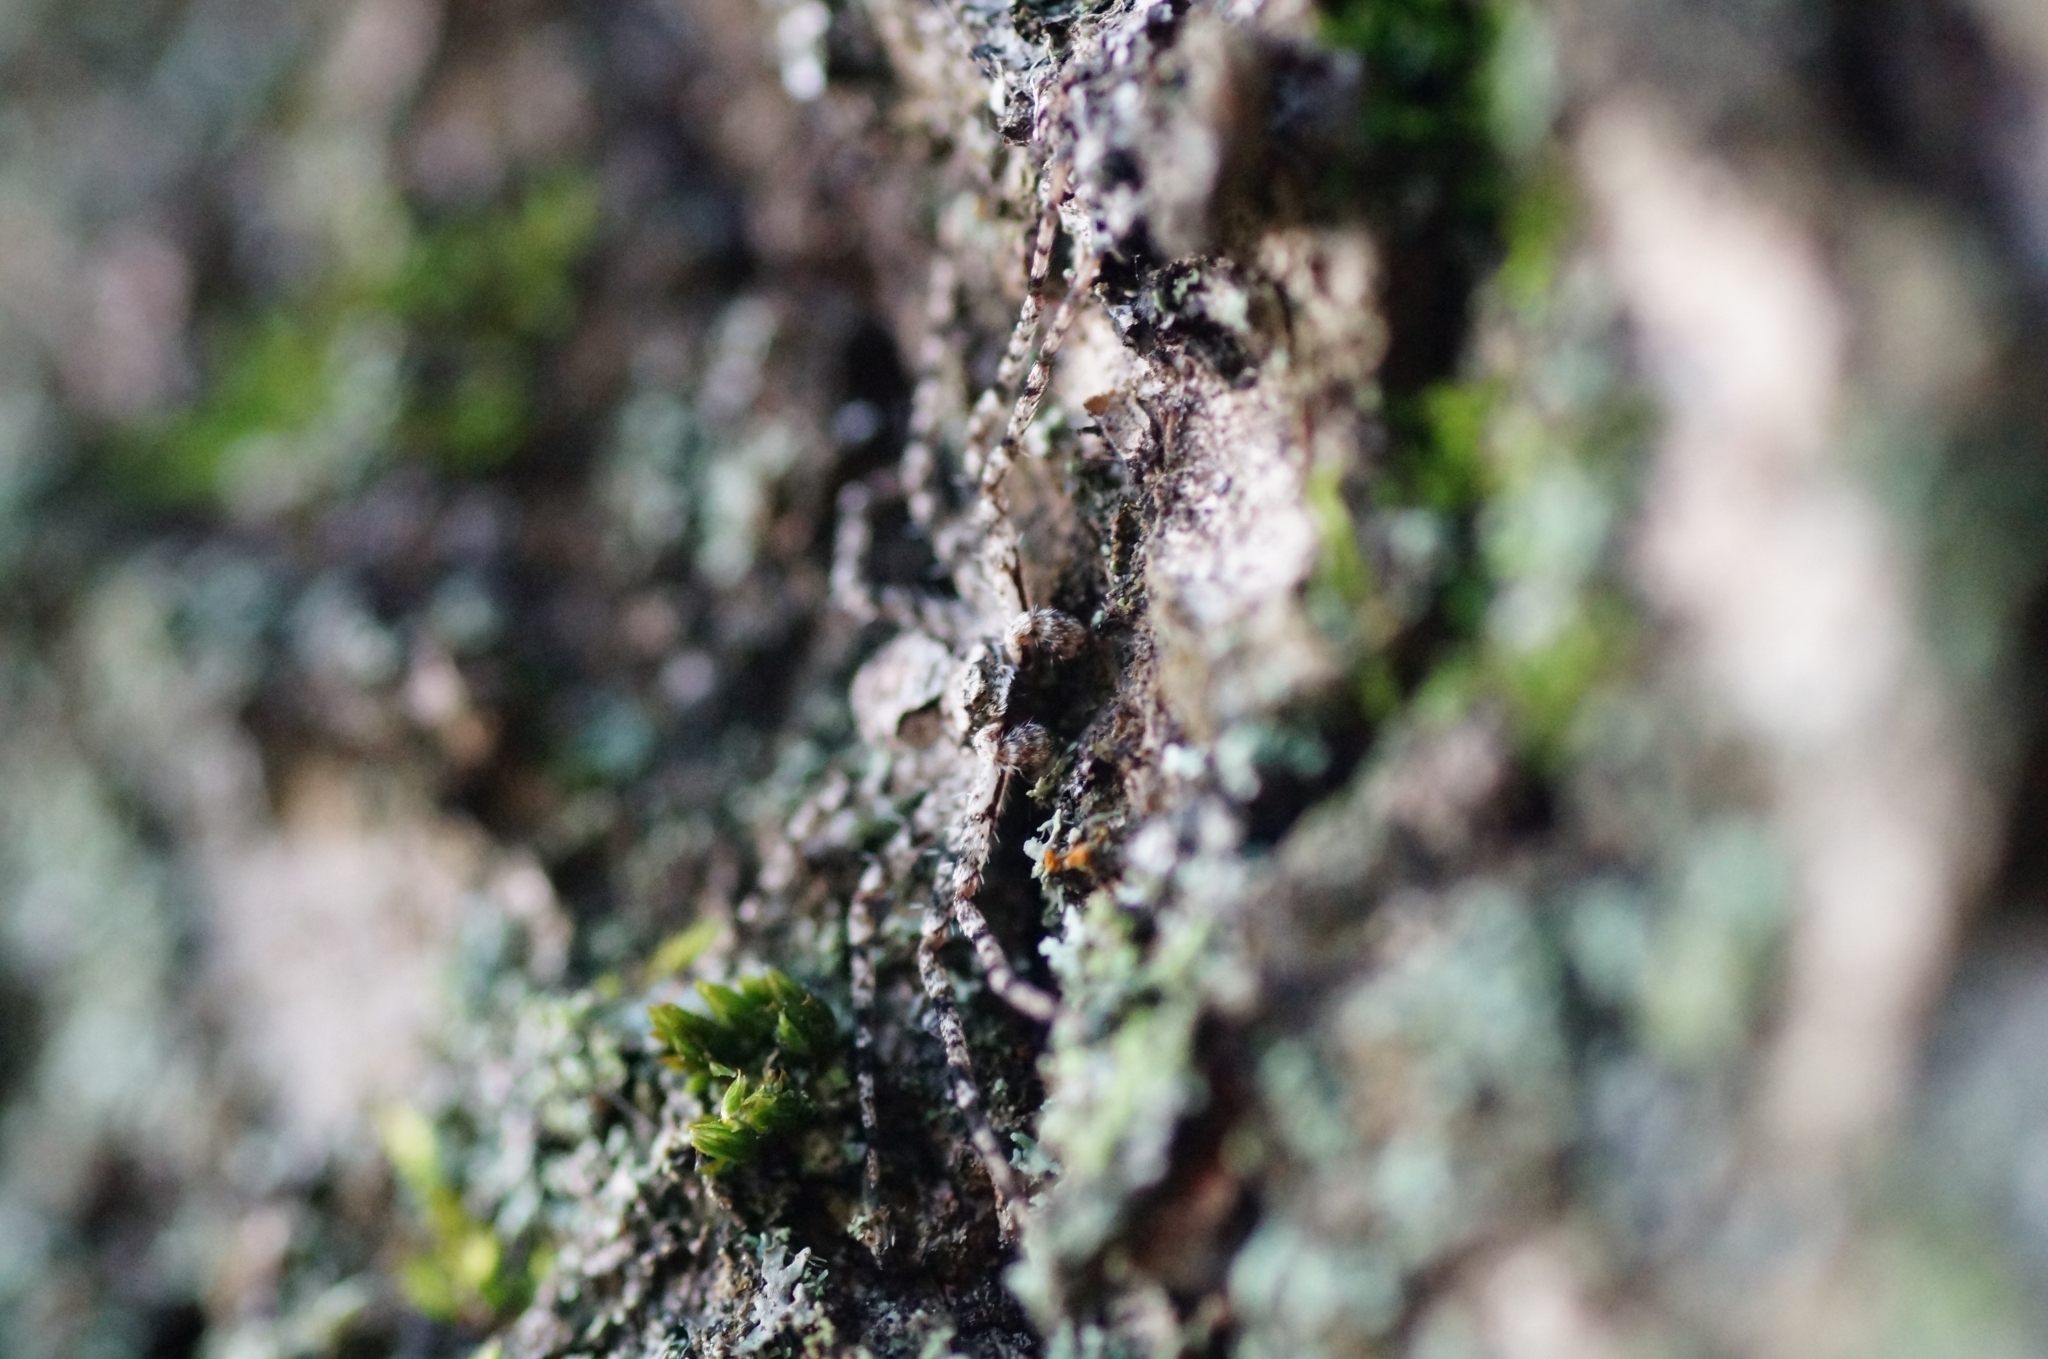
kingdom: Animalia
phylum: Arthropoda
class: Arachnida
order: Araneae
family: Philodromidae
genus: Philodromus
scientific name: Philodromus poecilus
